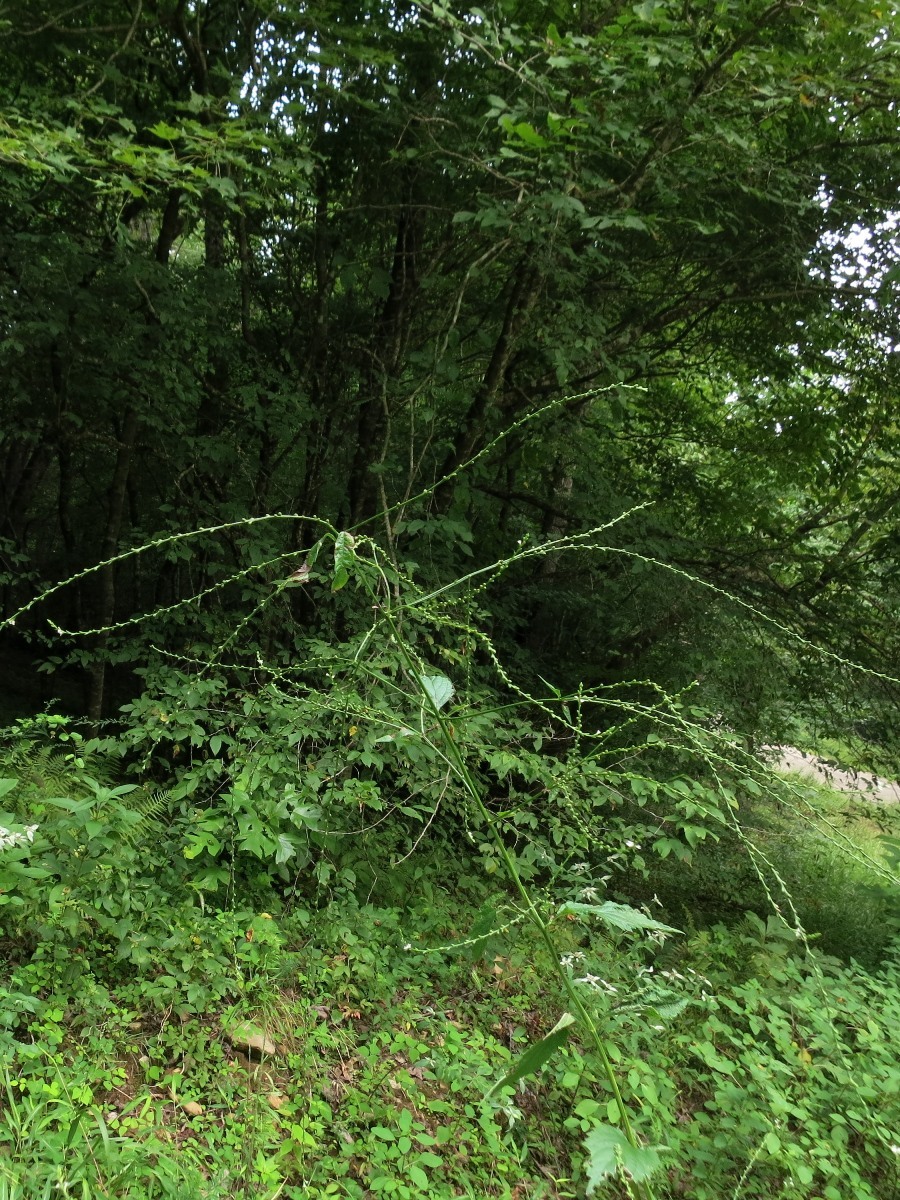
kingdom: Plantae
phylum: Tracheophyta
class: Magnoliopsida
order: Lamiales
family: Verbenaceae
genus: Verbena
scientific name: Verbena urticifolia
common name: Nettle-leaved vervain
